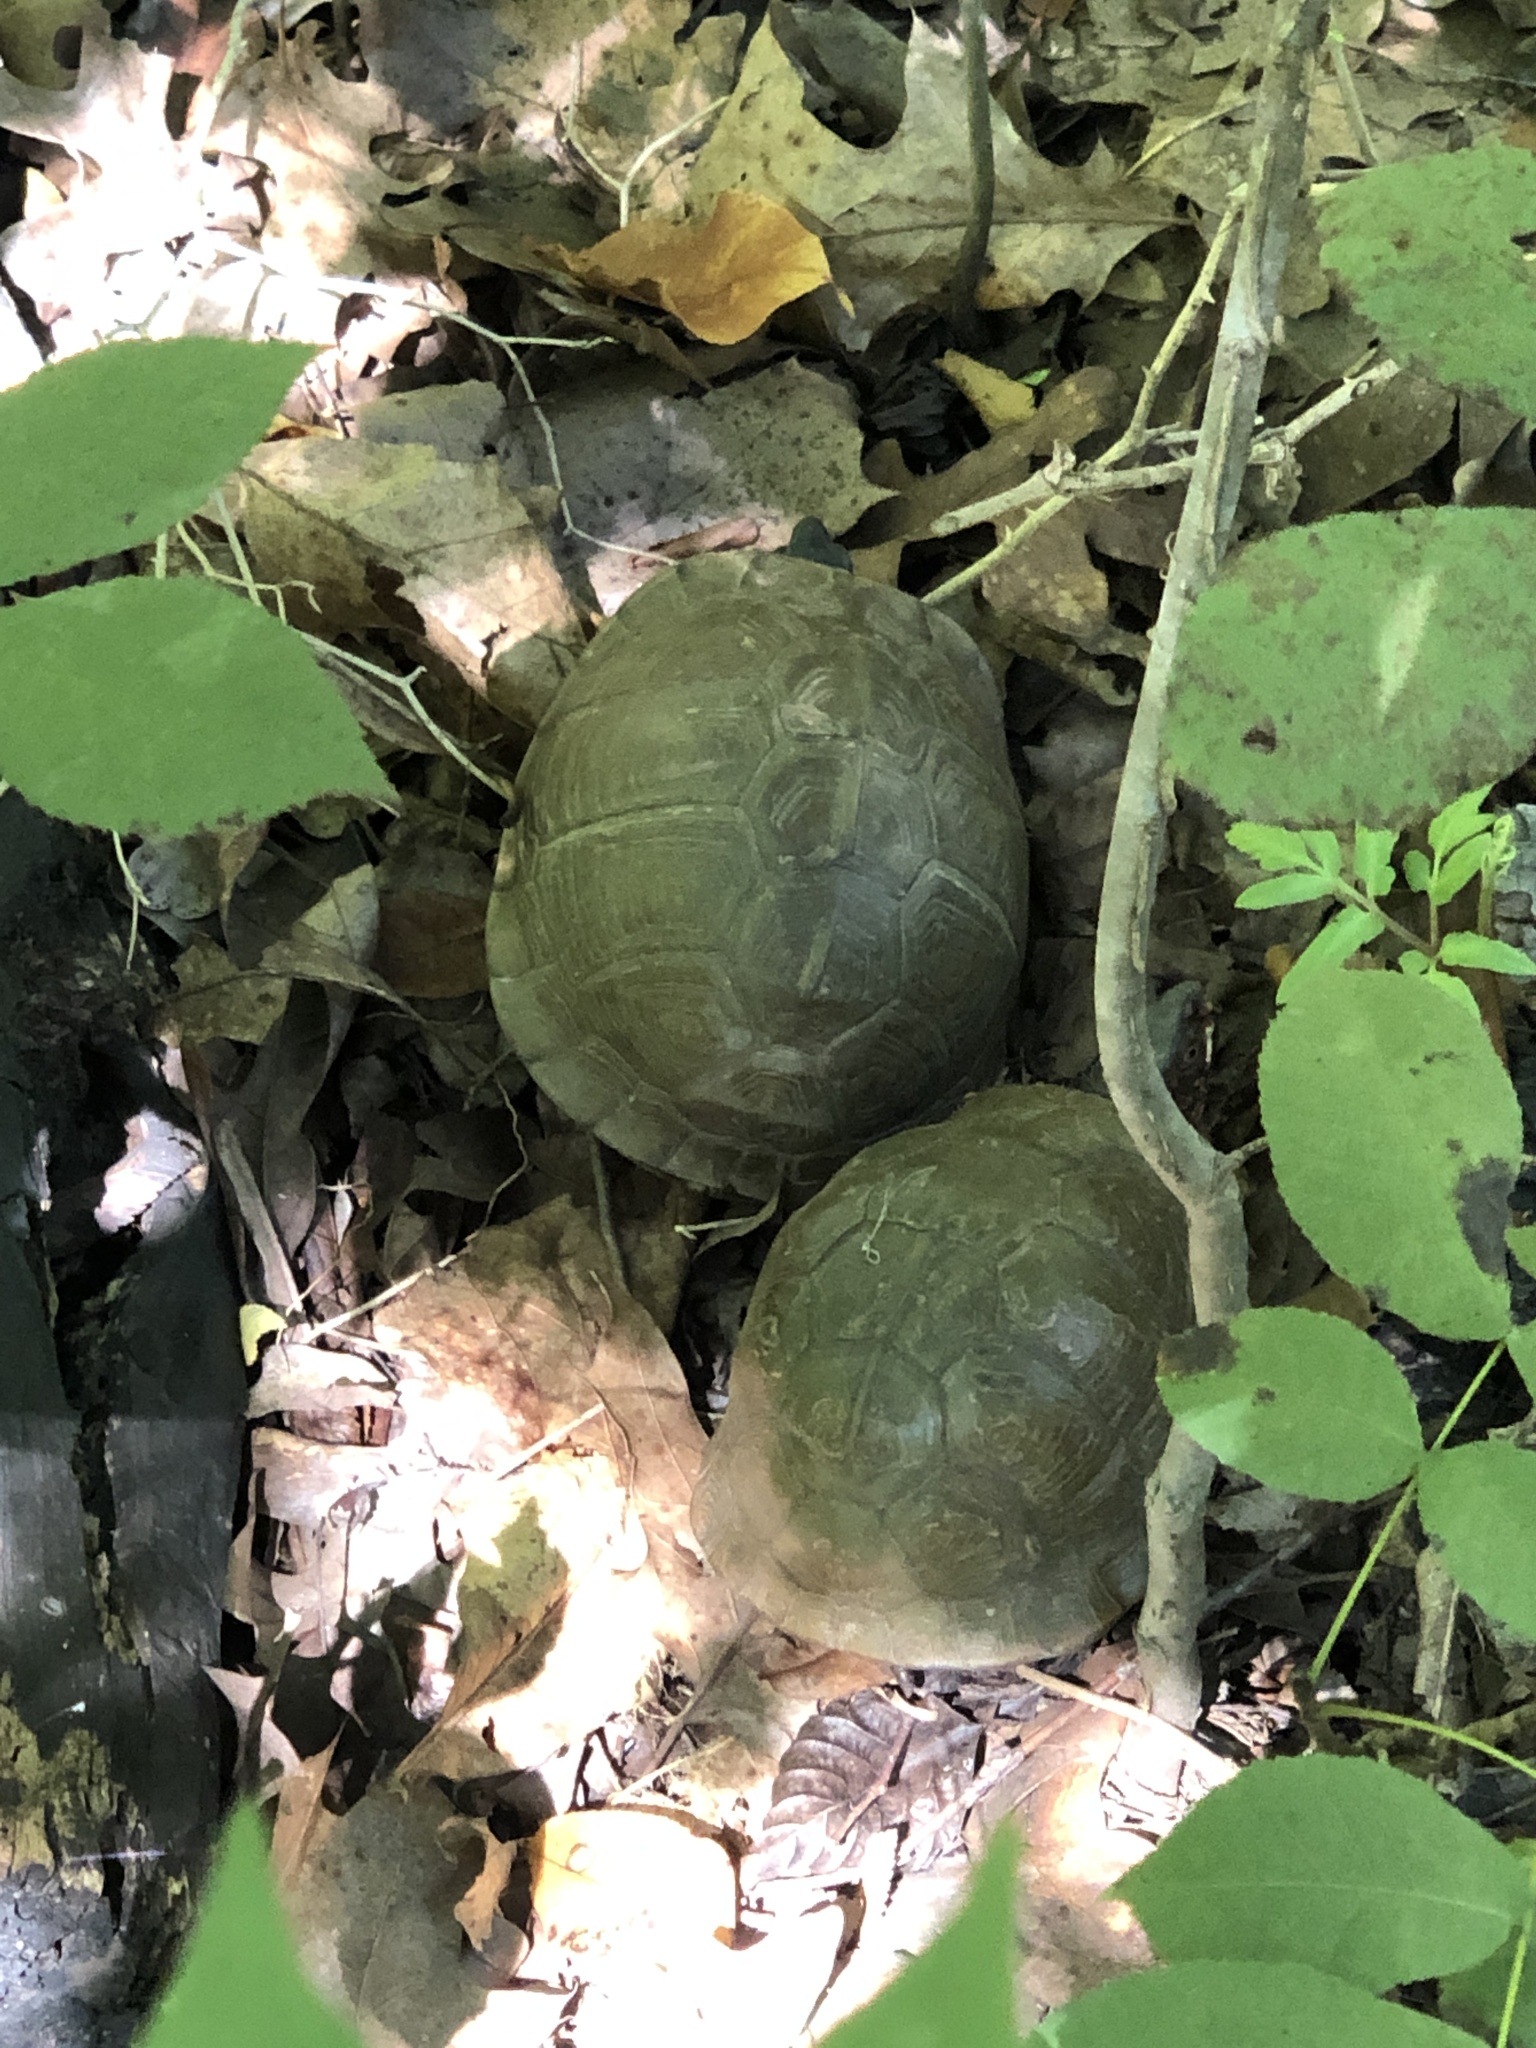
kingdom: Animalia
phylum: Chordata
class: Testudines
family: Emydidae
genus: Terrapene
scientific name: Terrapene carolina
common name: Common box turtle
